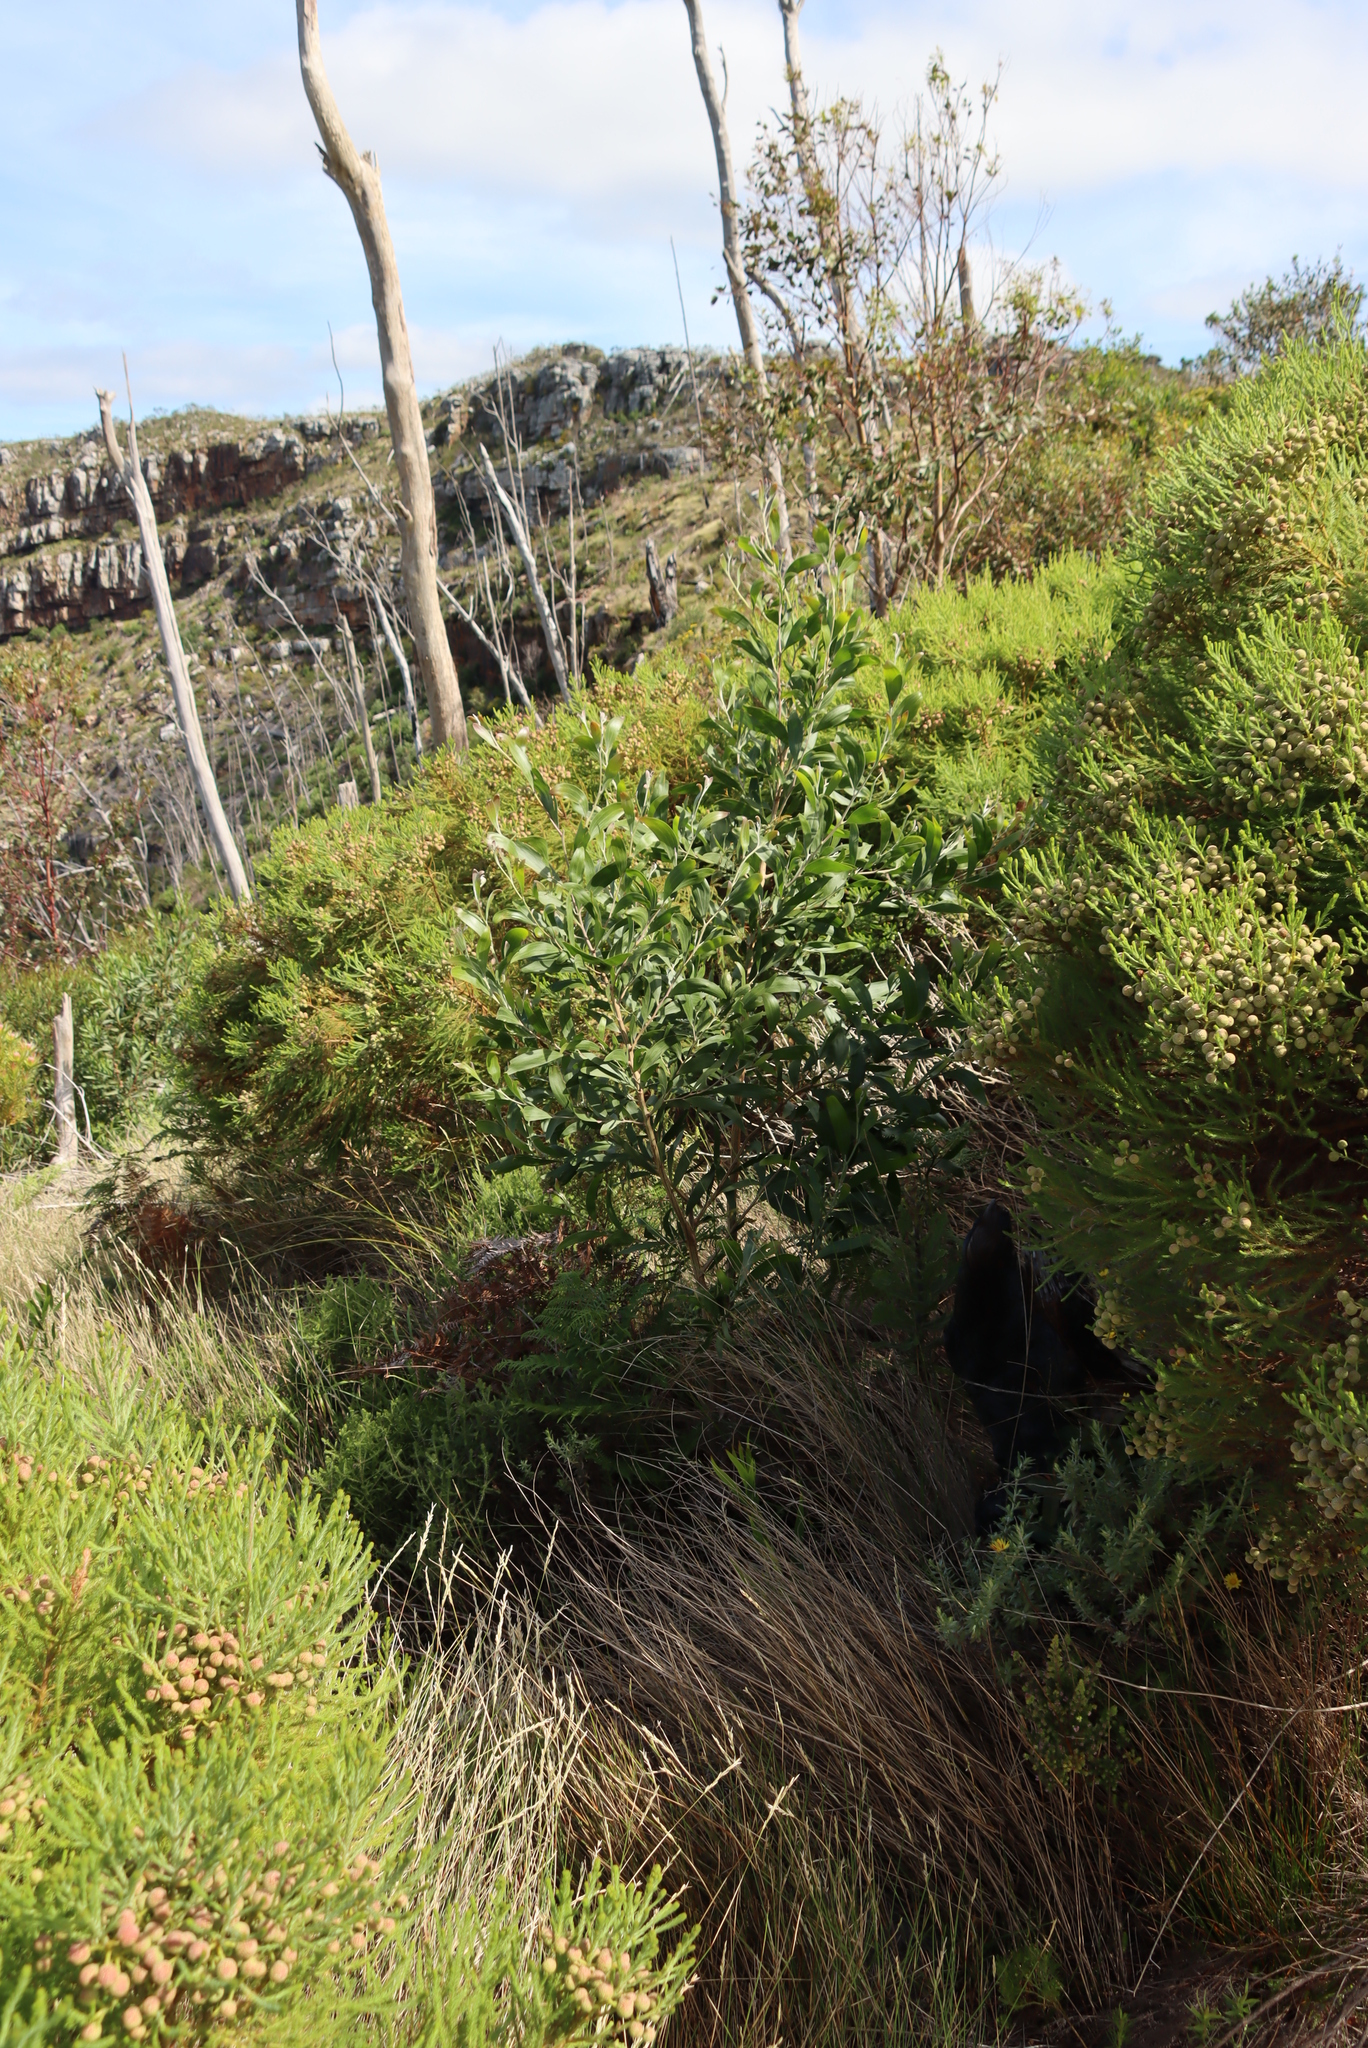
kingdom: Plantae
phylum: Tracheophyta
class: Magnoliopsida
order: Fabales
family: Fabaceae
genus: Acacia
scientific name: Acacia melanoxylon
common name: Blackwood
